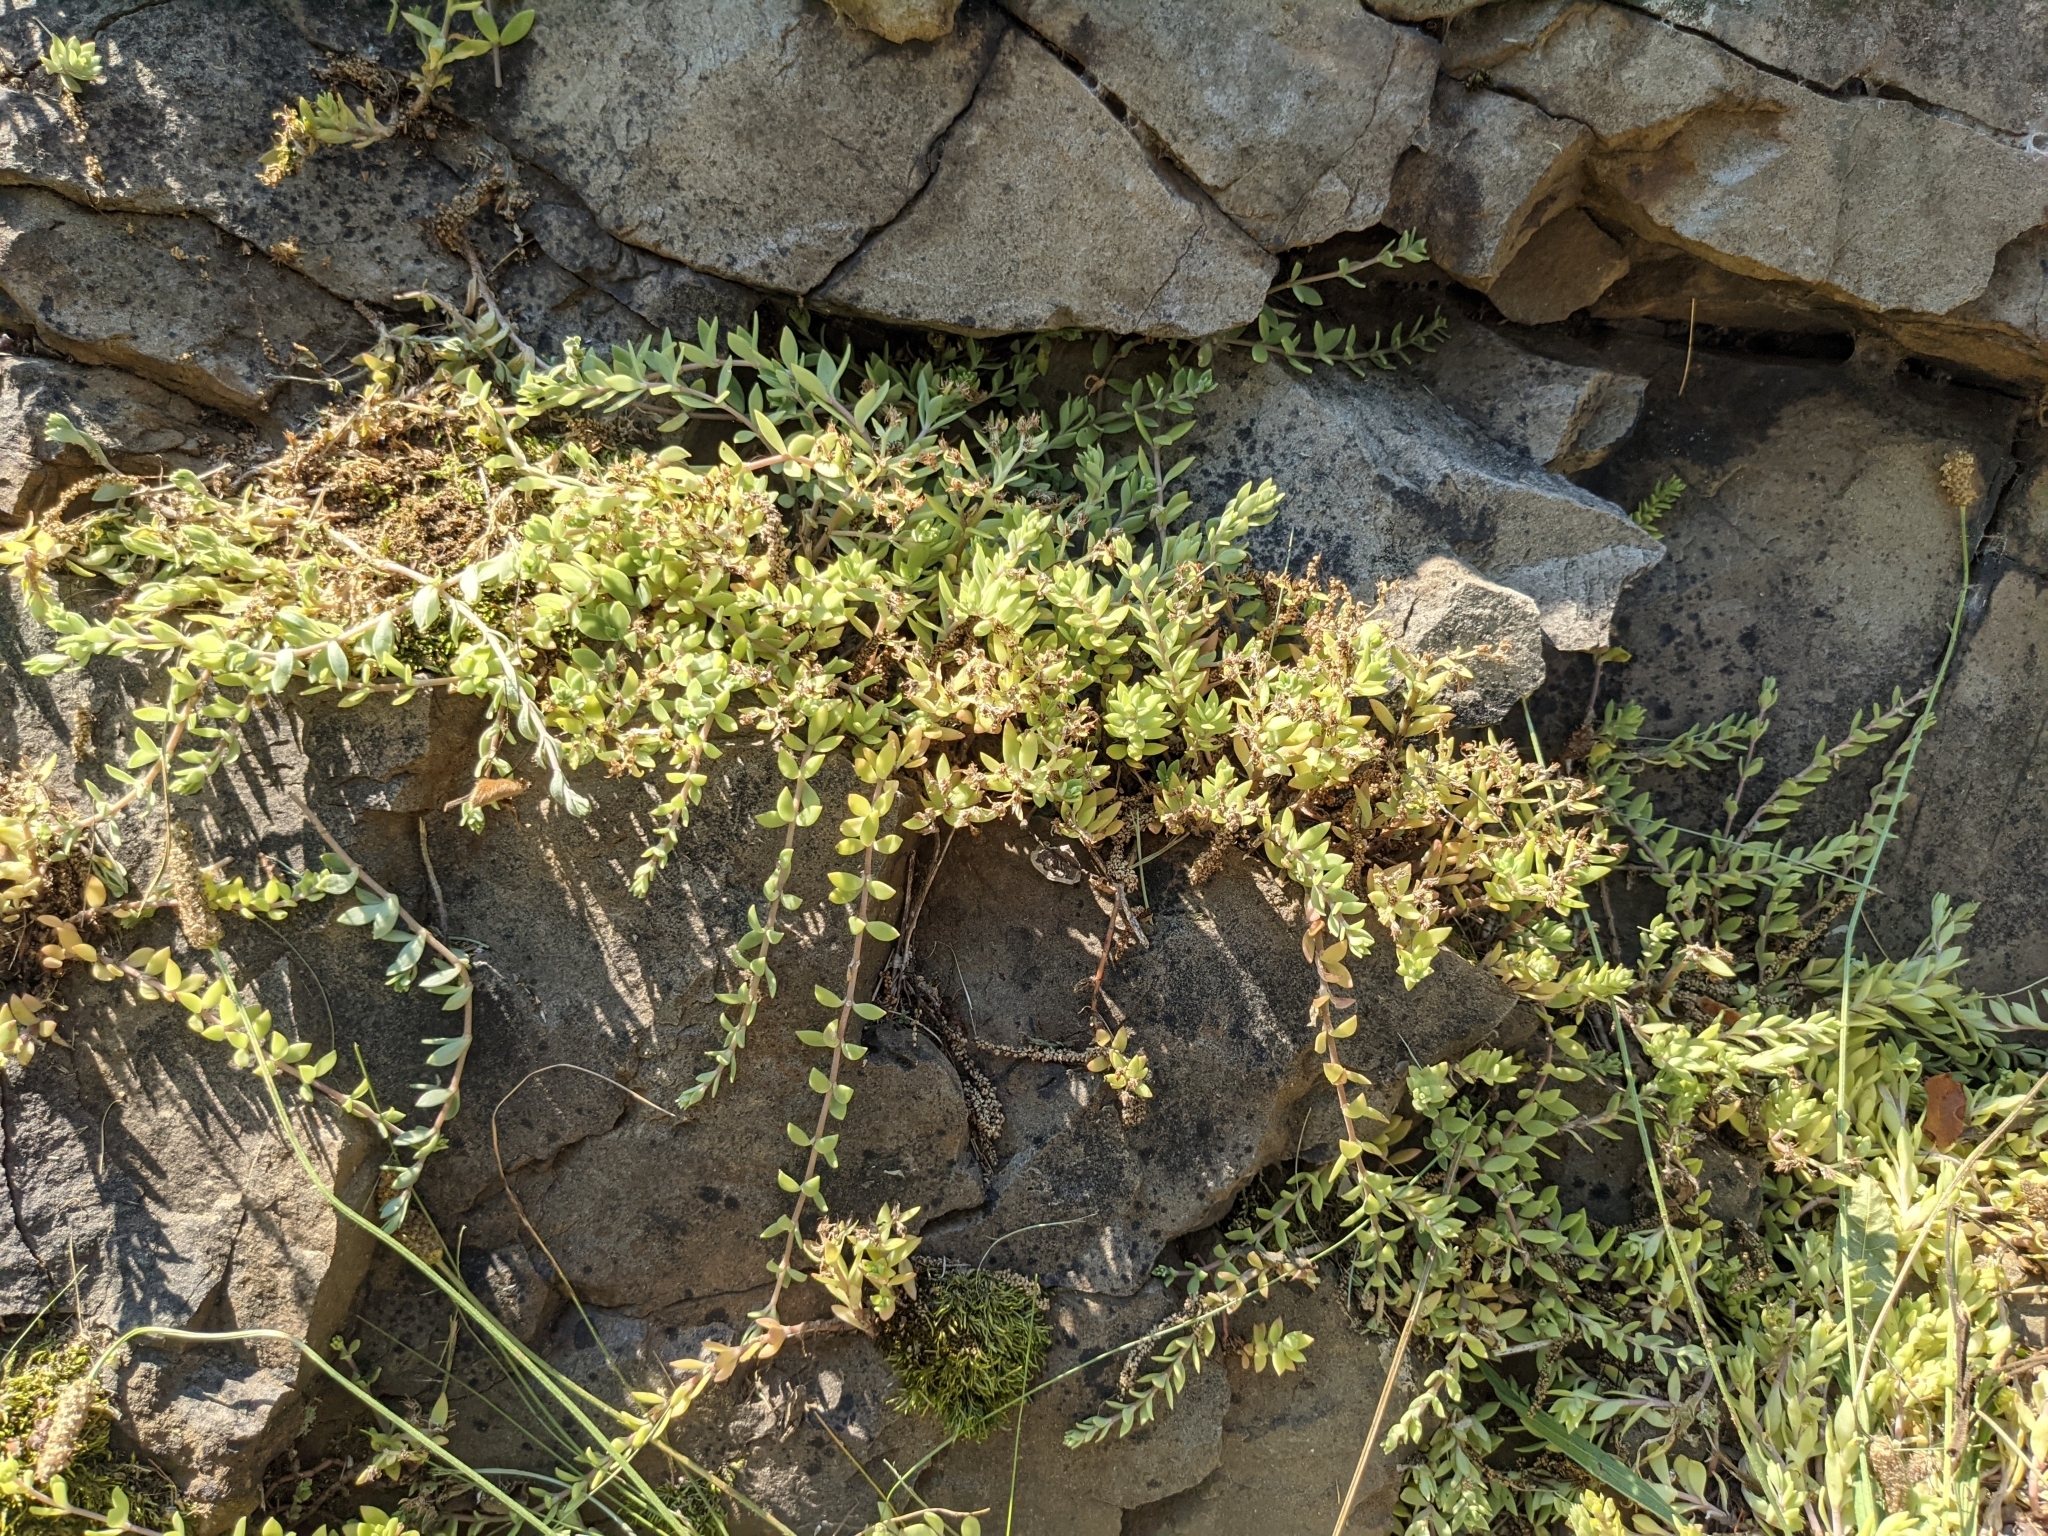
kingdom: Plantae
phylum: Tracheophyta
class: Magnoliopsida
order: Saxifragales
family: Crassulaceae
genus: Sedum
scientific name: Sedum sarmentosum
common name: Stringy stonecrop
